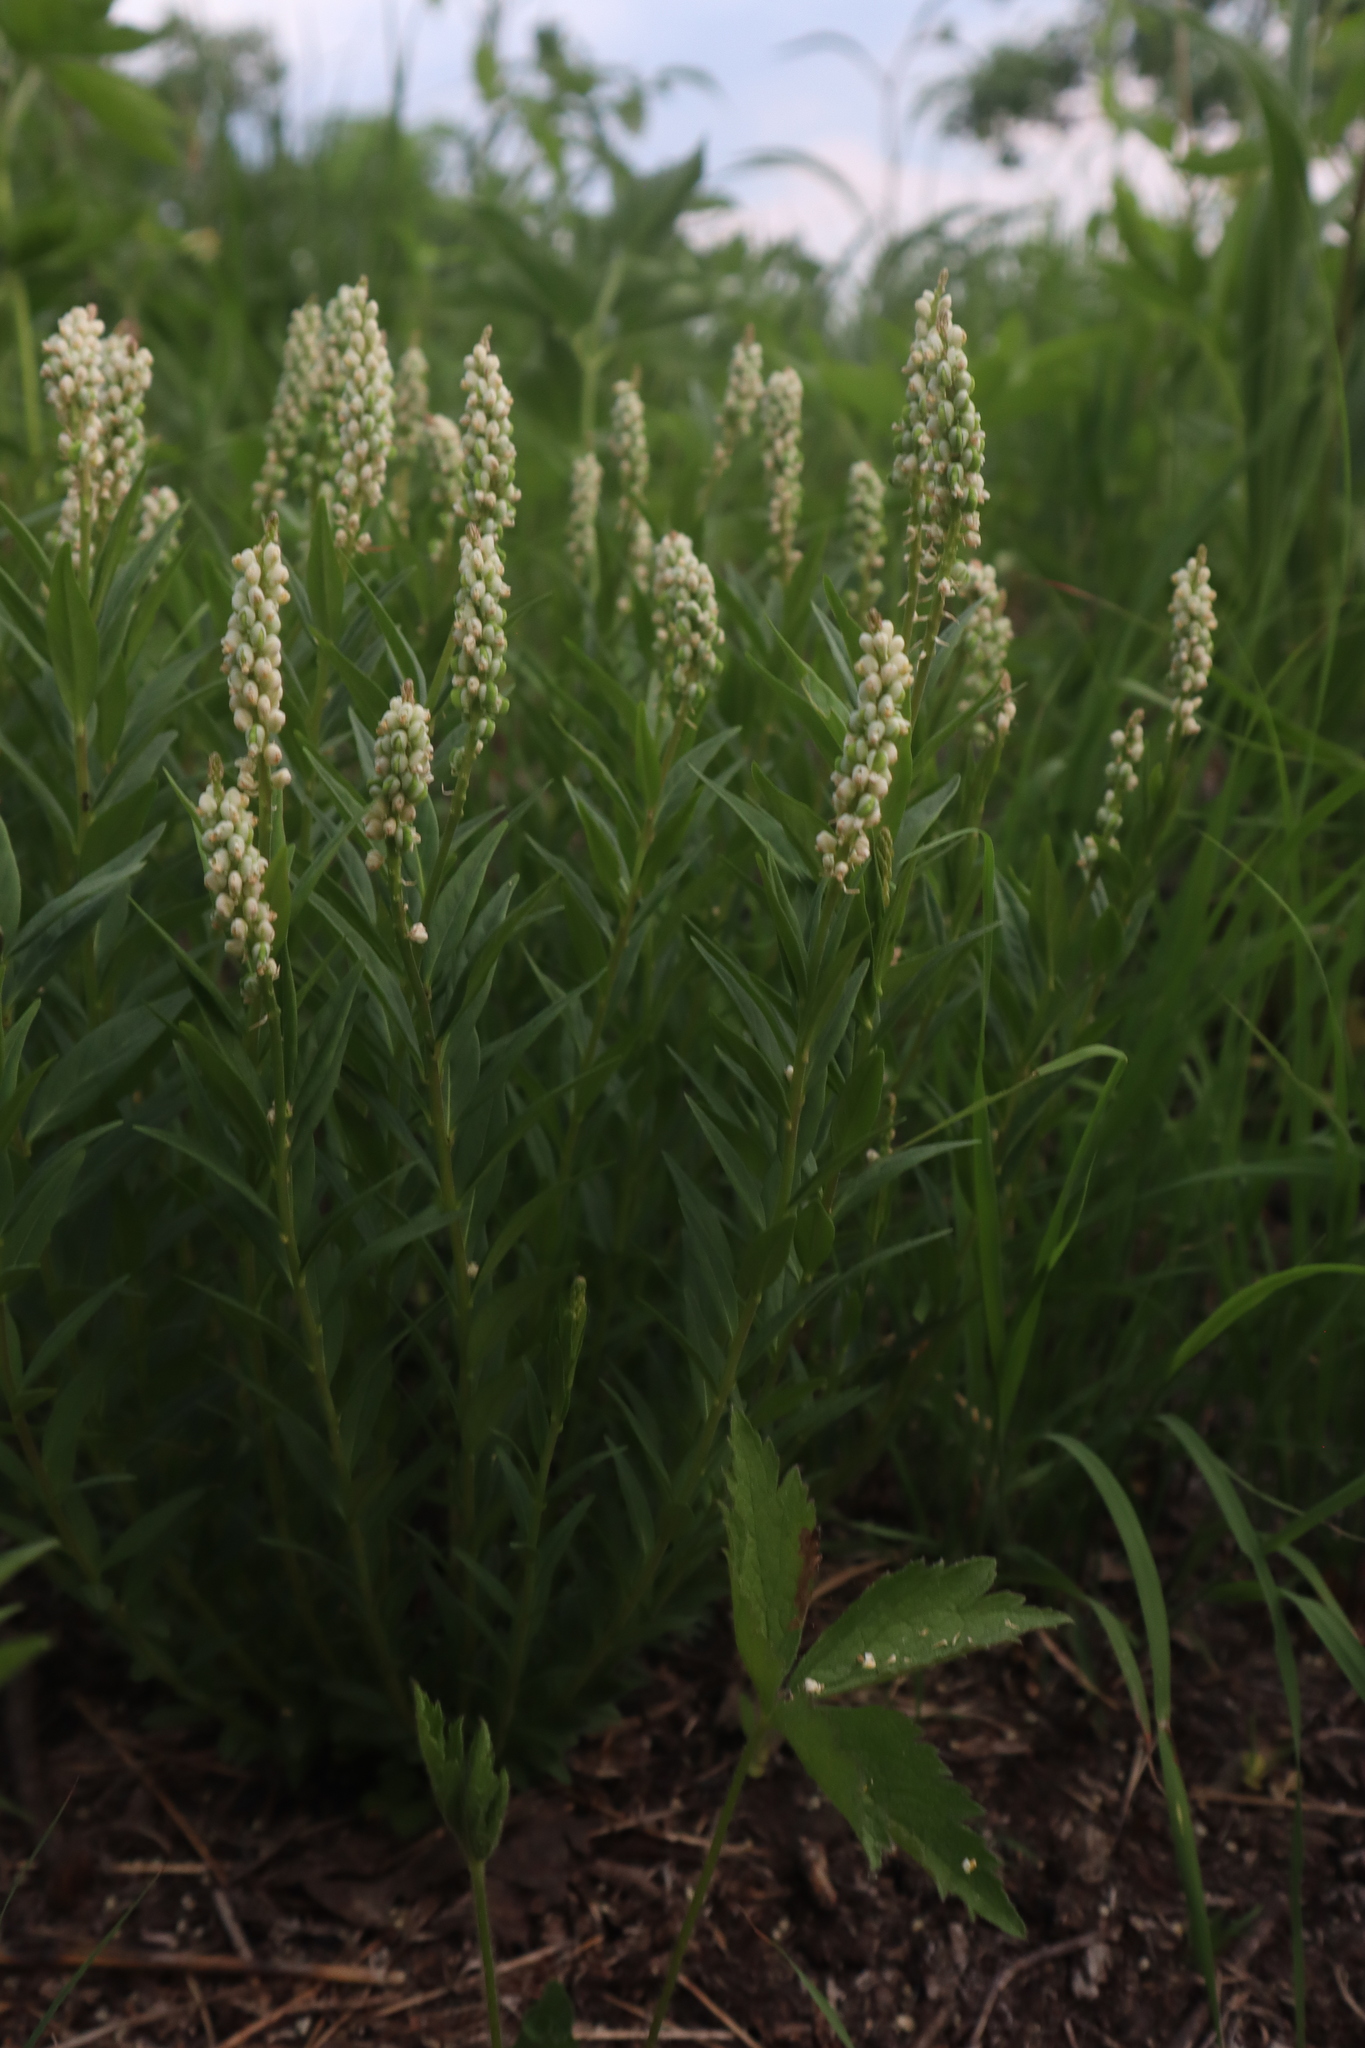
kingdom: Plantae
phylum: Tracheophyta
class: Magnoliopsida
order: Fabales
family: Polygalaceae
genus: Polygala
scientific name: Polygala senega
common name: Seneca snakeroot
